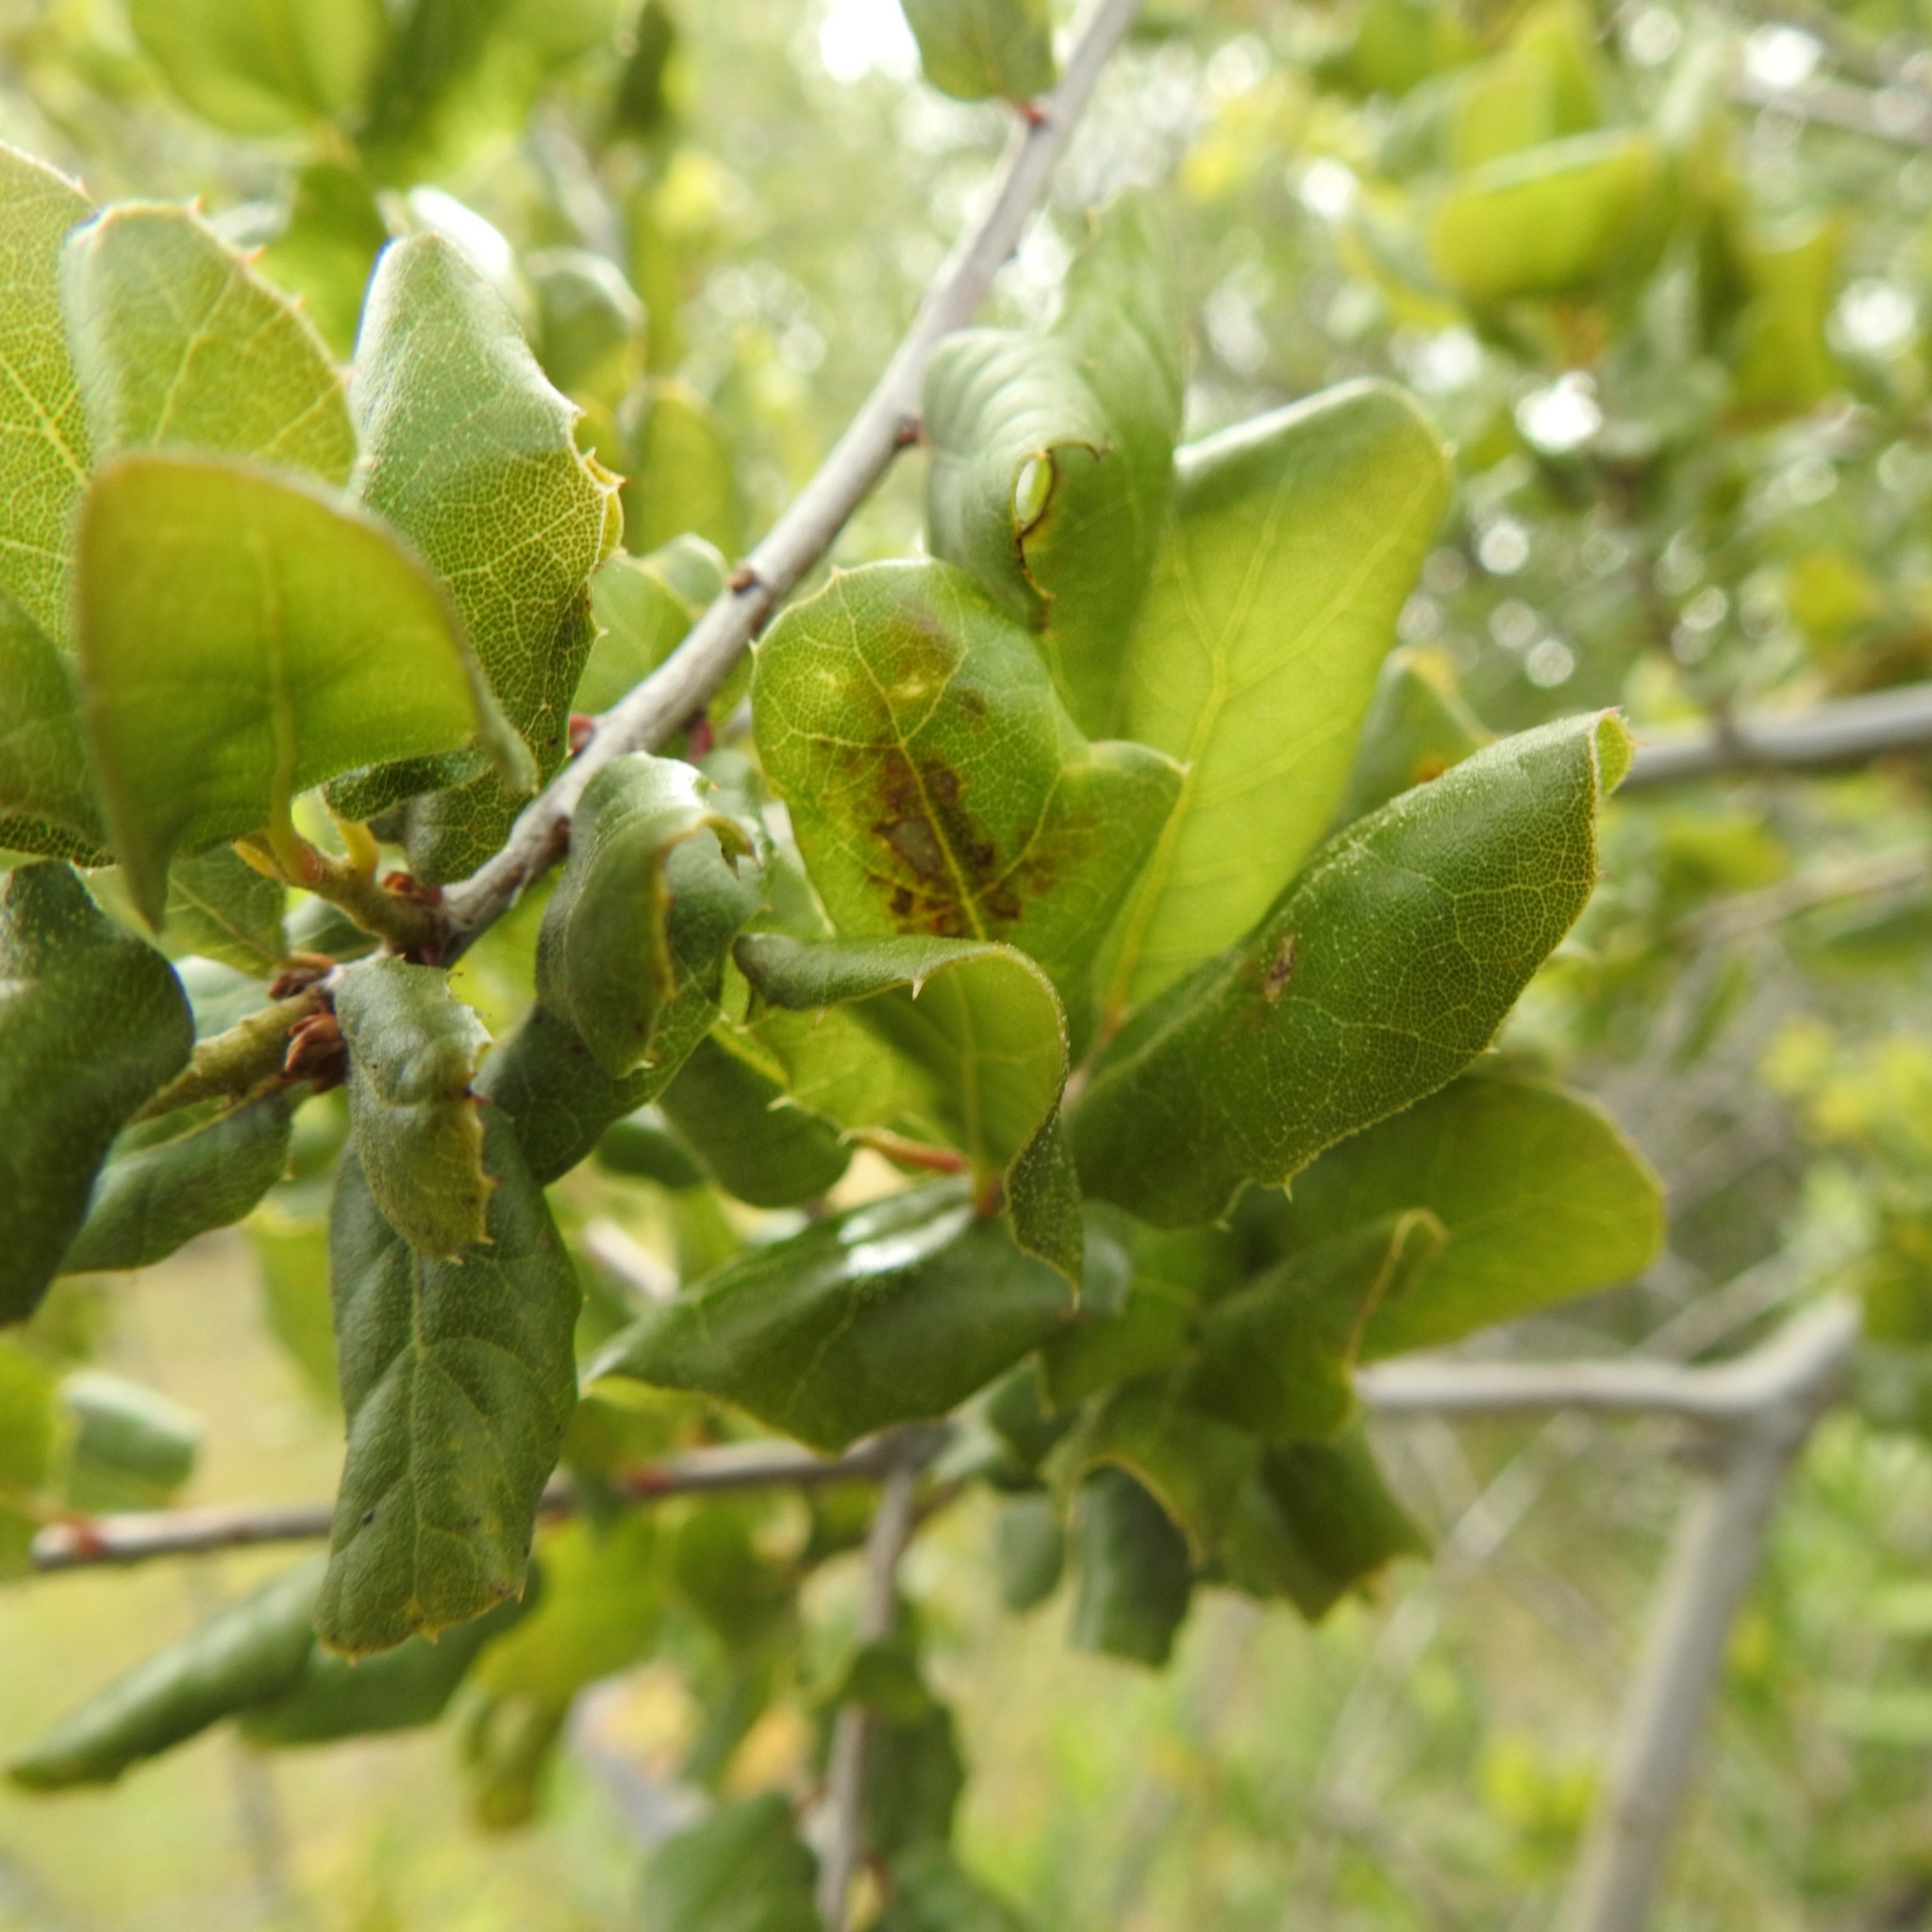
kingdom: Plantae
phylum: Tracheophyta
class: Magnoliopsida
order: Fagales
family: Fagaceae
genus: Quercus
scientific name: Quercus agrifolia
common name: California live oak
